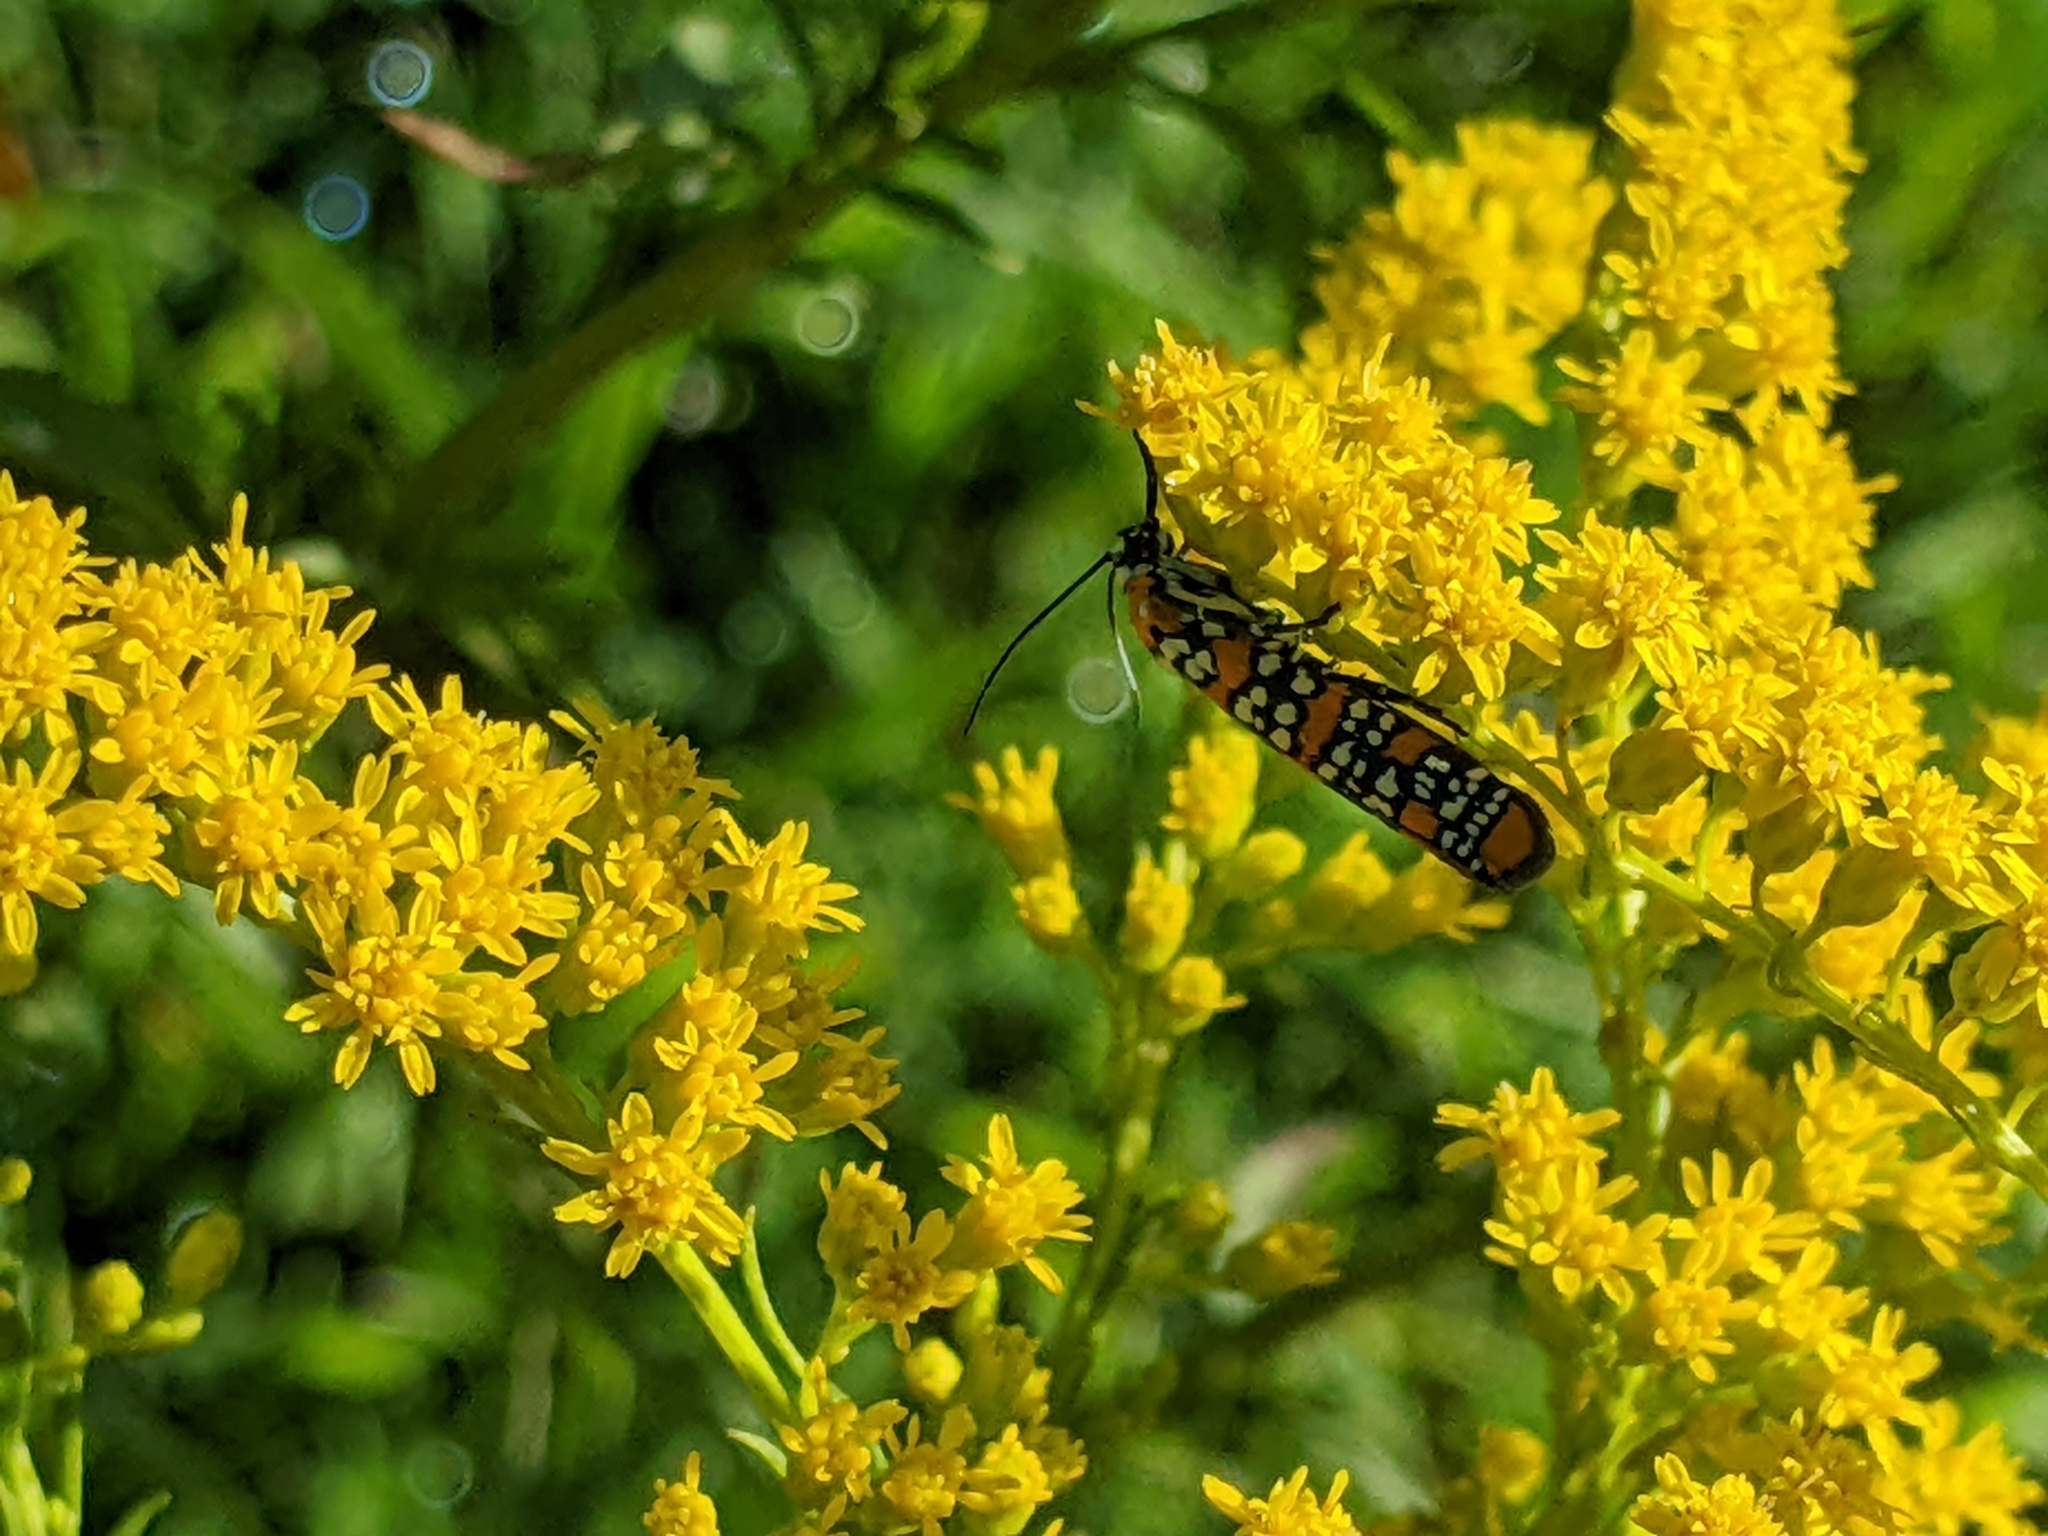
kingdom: Animalia
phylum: Arthropoda
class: Insecta
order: Lepidoptera
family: Attevidae
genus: Atteva
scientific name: Atteva punctella
